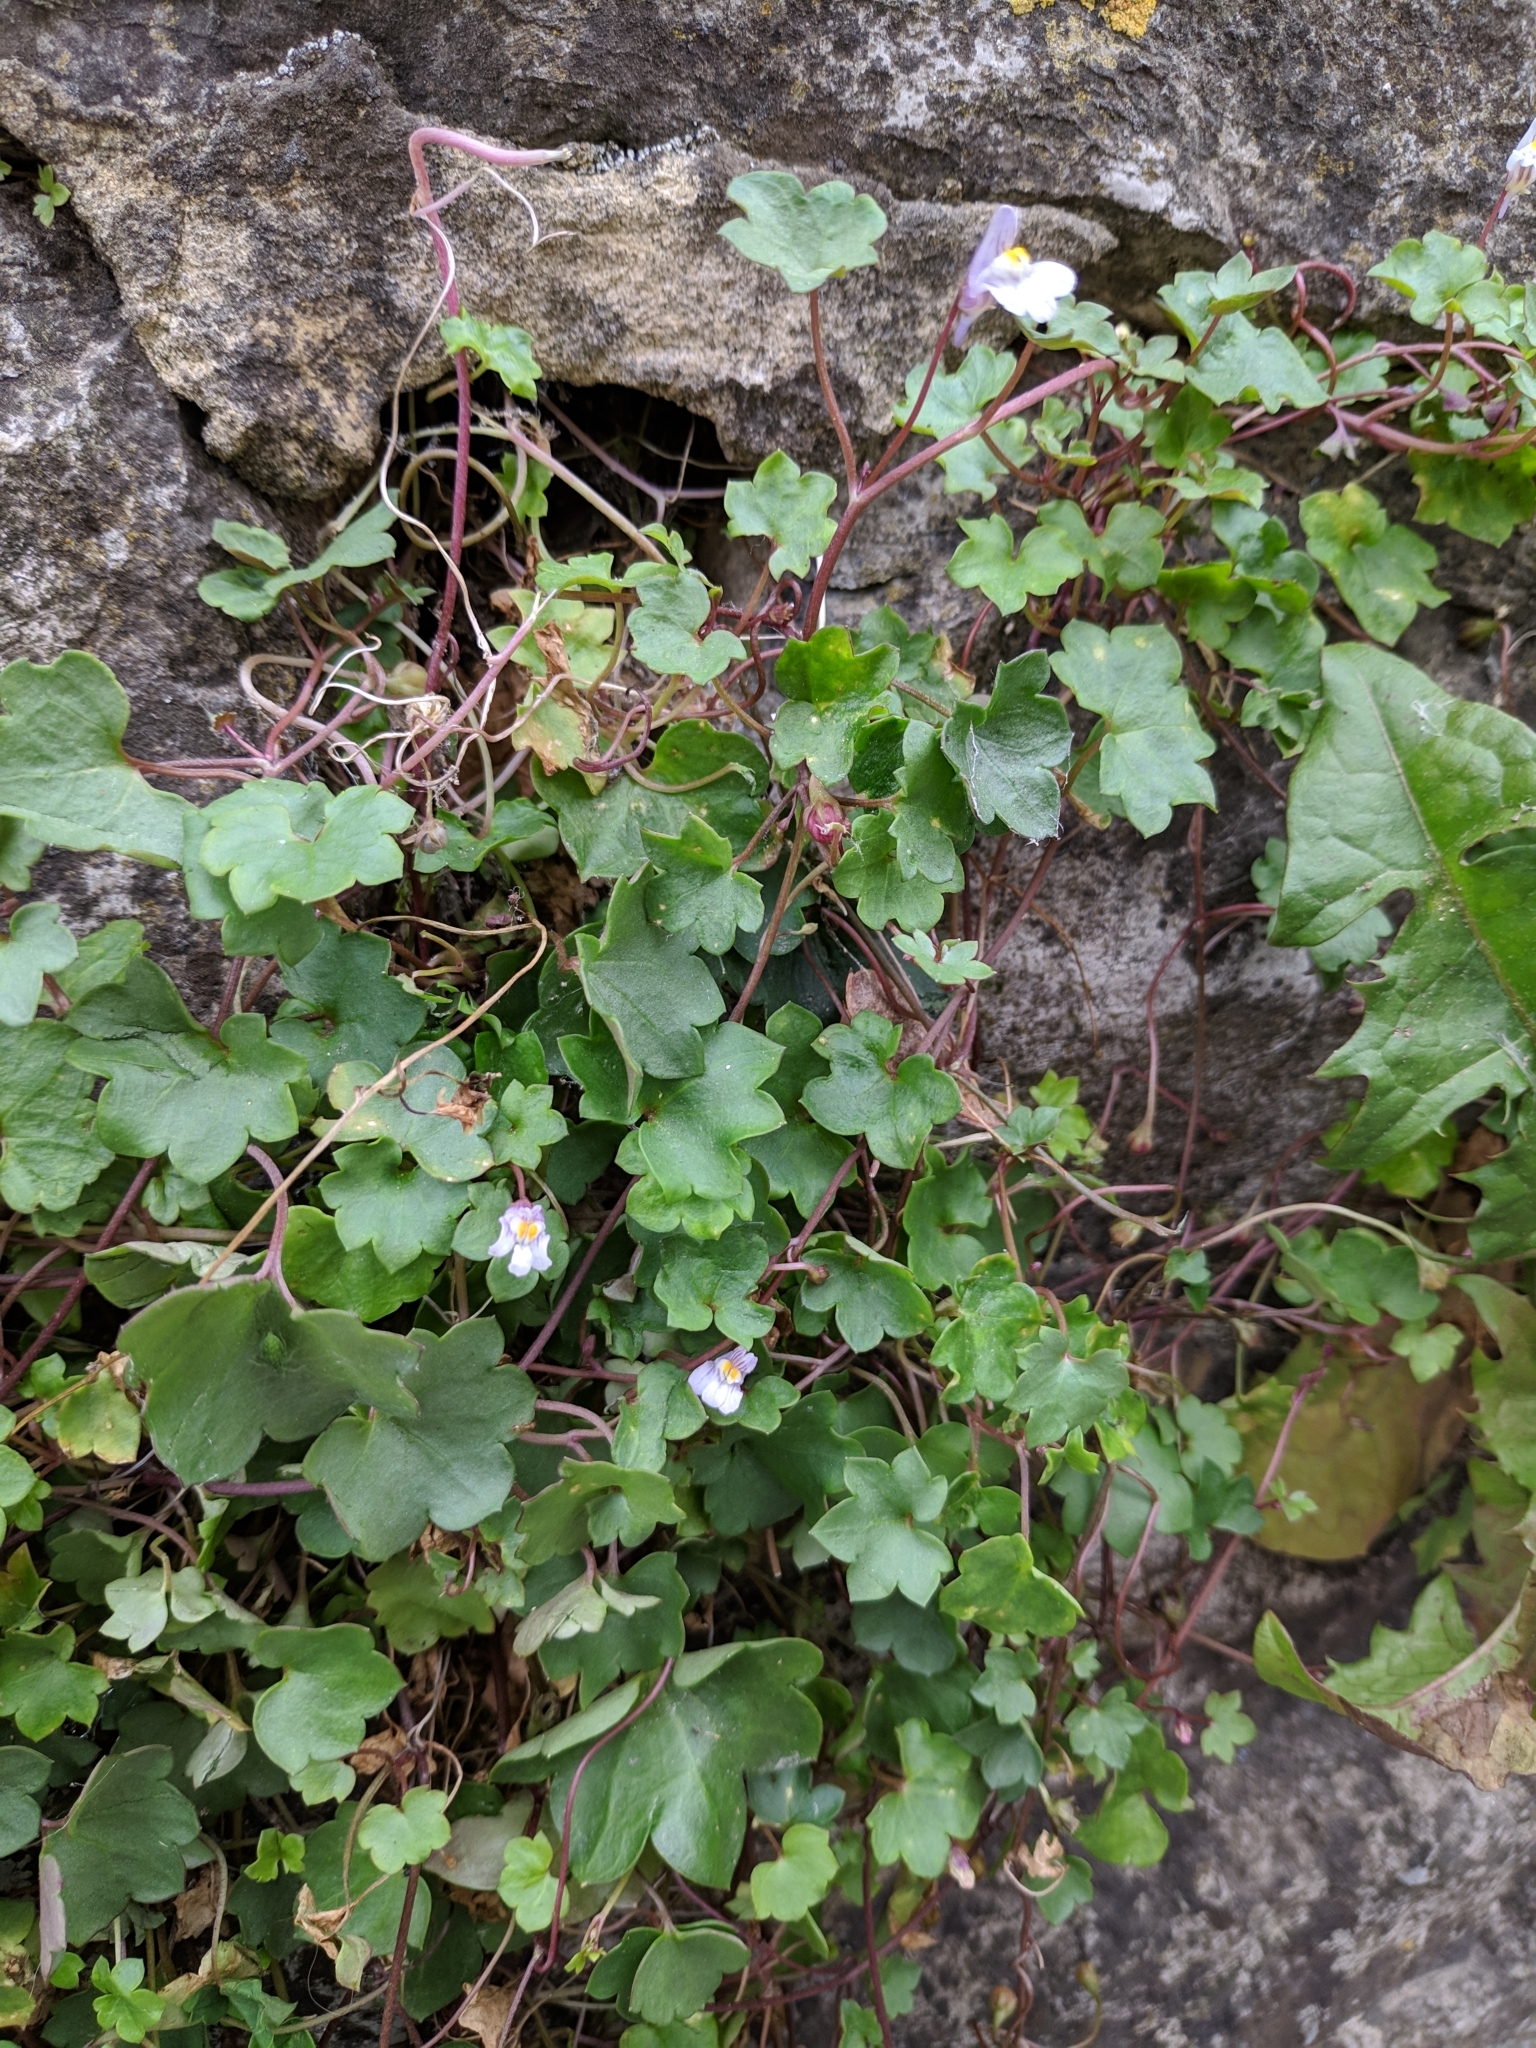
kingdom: Plantae
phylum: Tracheophyta
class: Magnoliopsida
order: Lamiales
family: Plantaginaceae
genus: Cymbalaria
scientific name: Cymbalaria muralis
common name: Ivy-leaved toadflax
